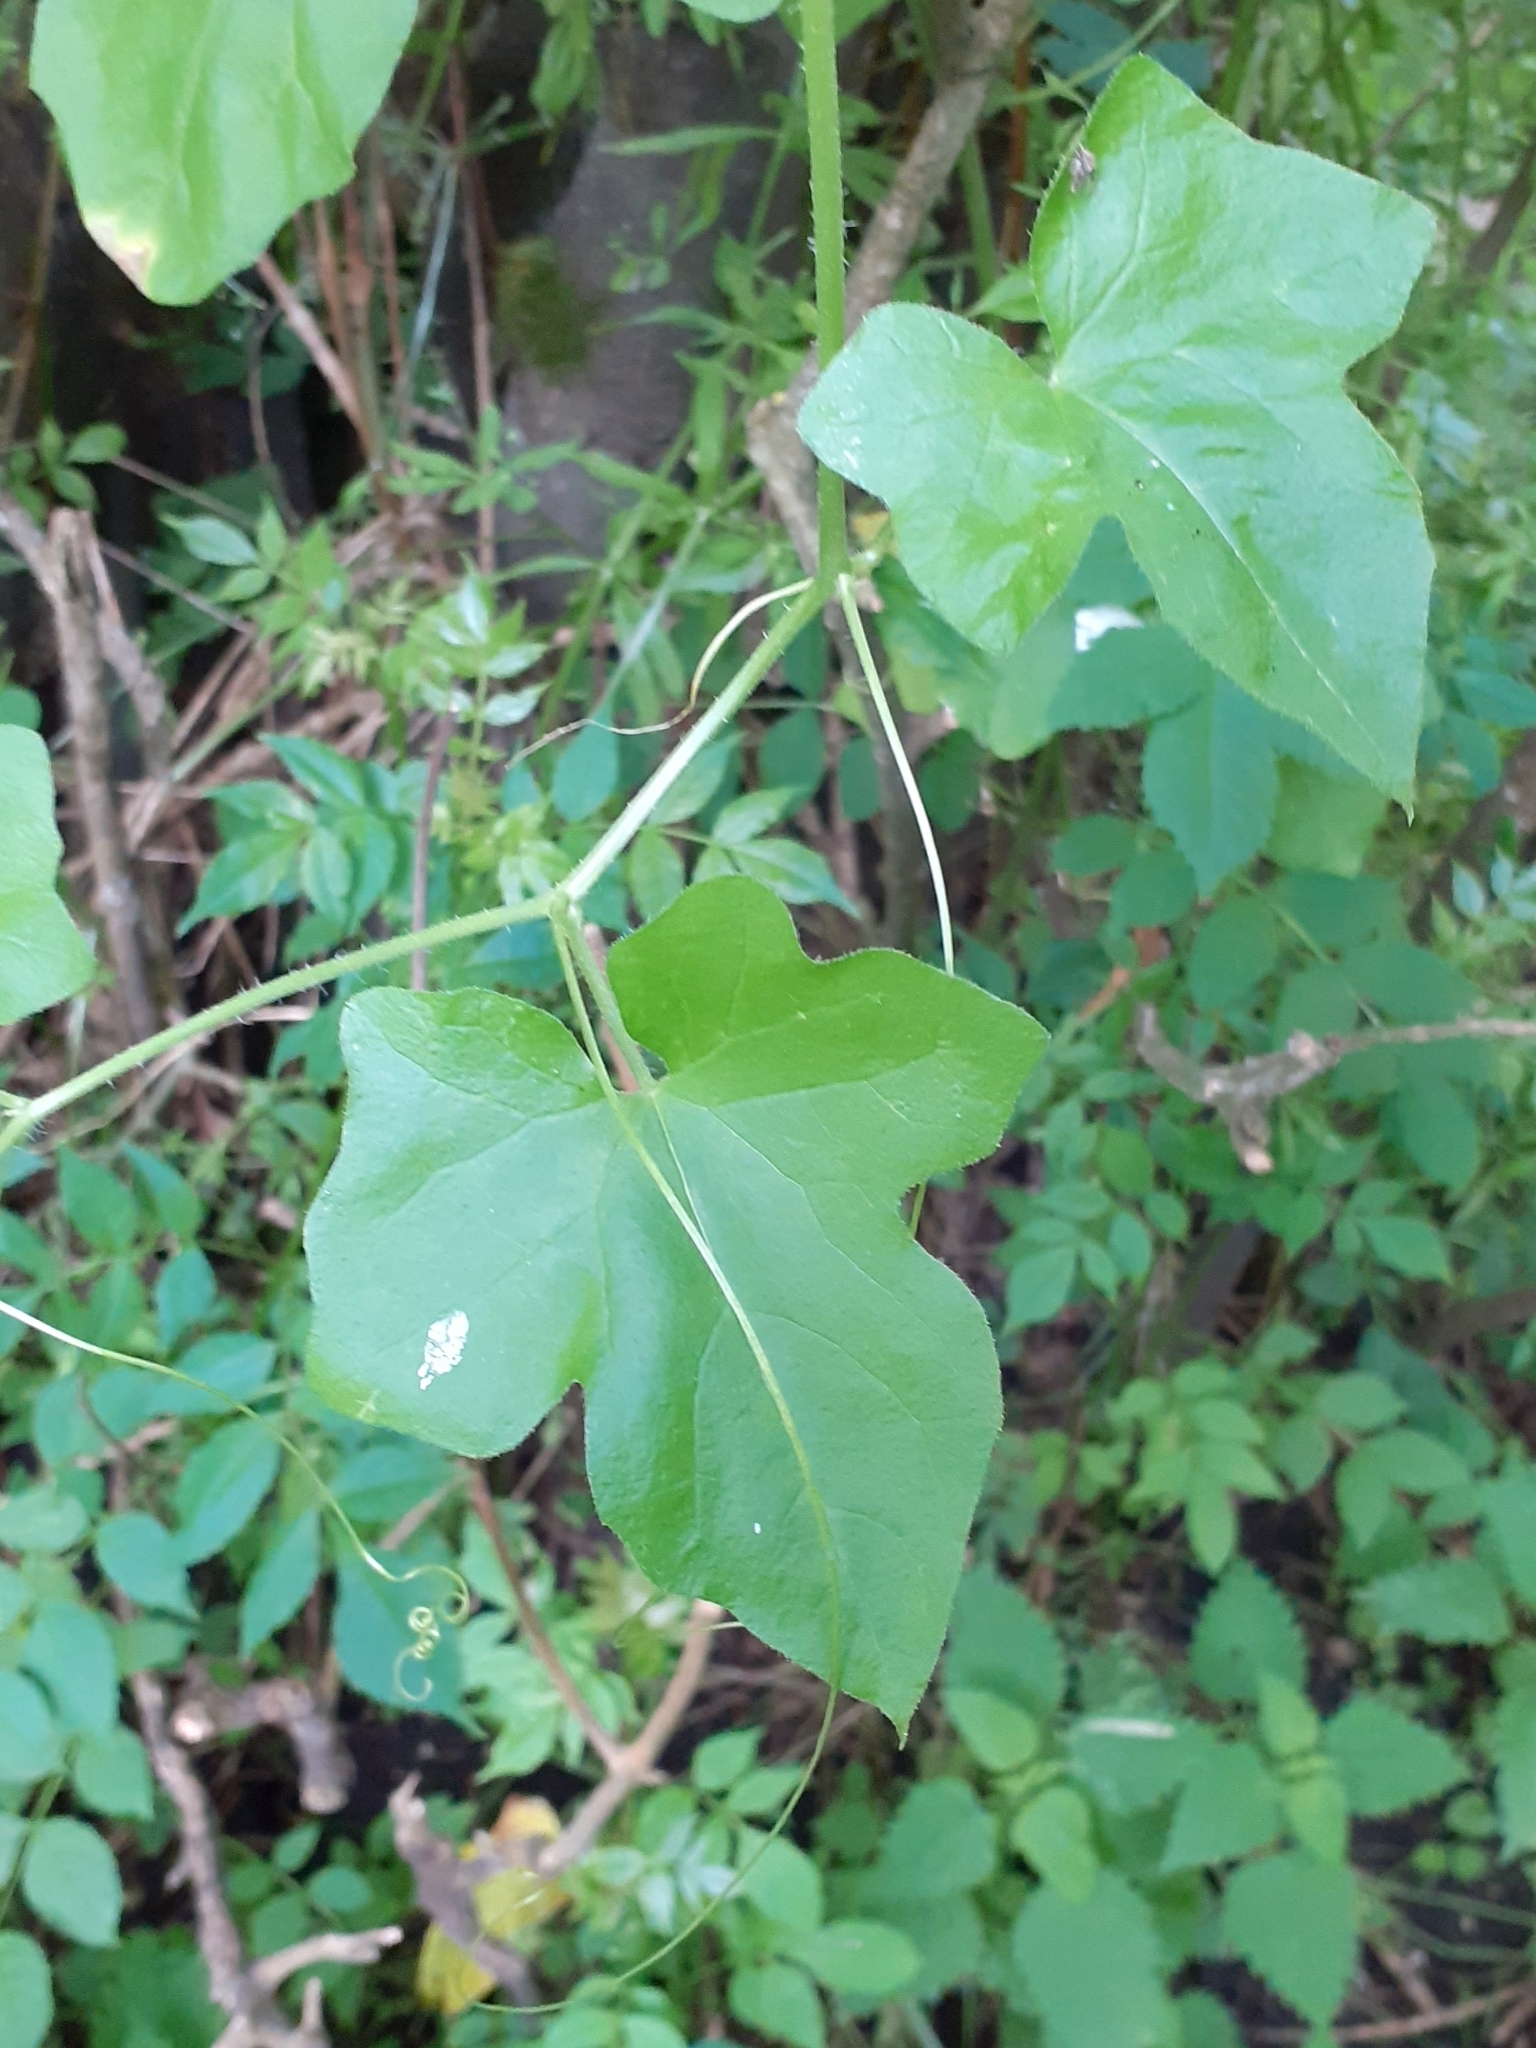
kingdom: Plantae
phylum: Tracheophyta
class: Magnoliopsida
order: Cucurbitales
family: Cucurbitaceae
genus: Bryonia
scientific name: Bryonia dioica
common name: White bryony
